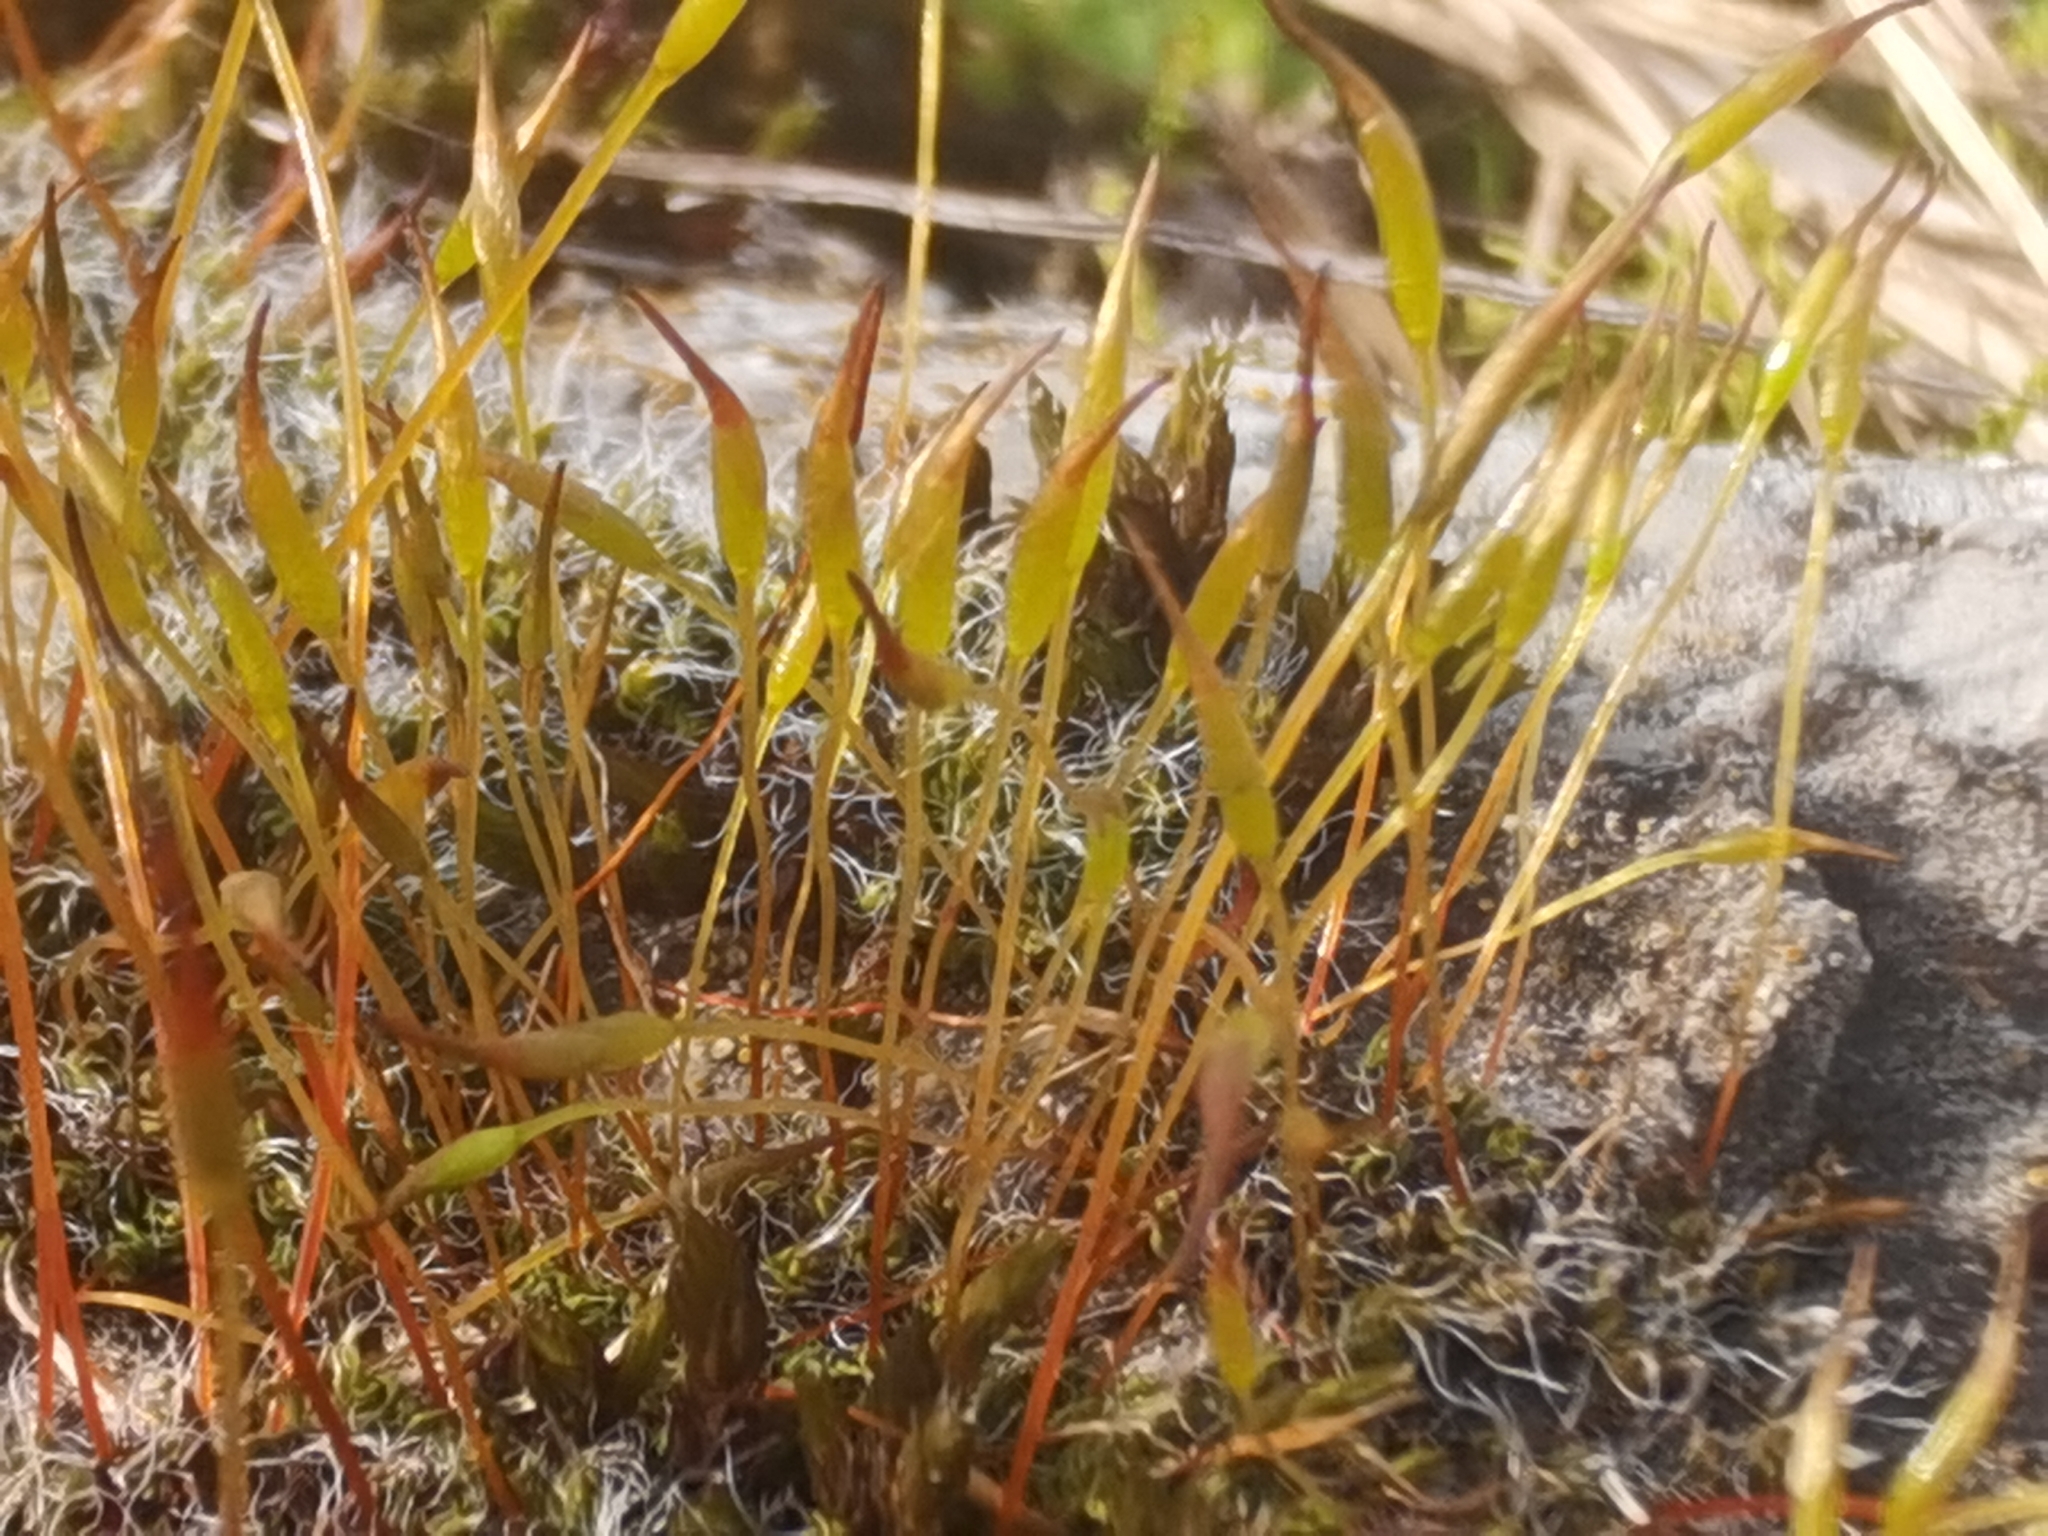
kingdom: Plantae
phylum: Bryophyta
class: Bryopsida
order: Pottiales
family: Pottiaceae
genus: Tortula
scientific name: Tortula muralis
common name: Wall screw-moss
